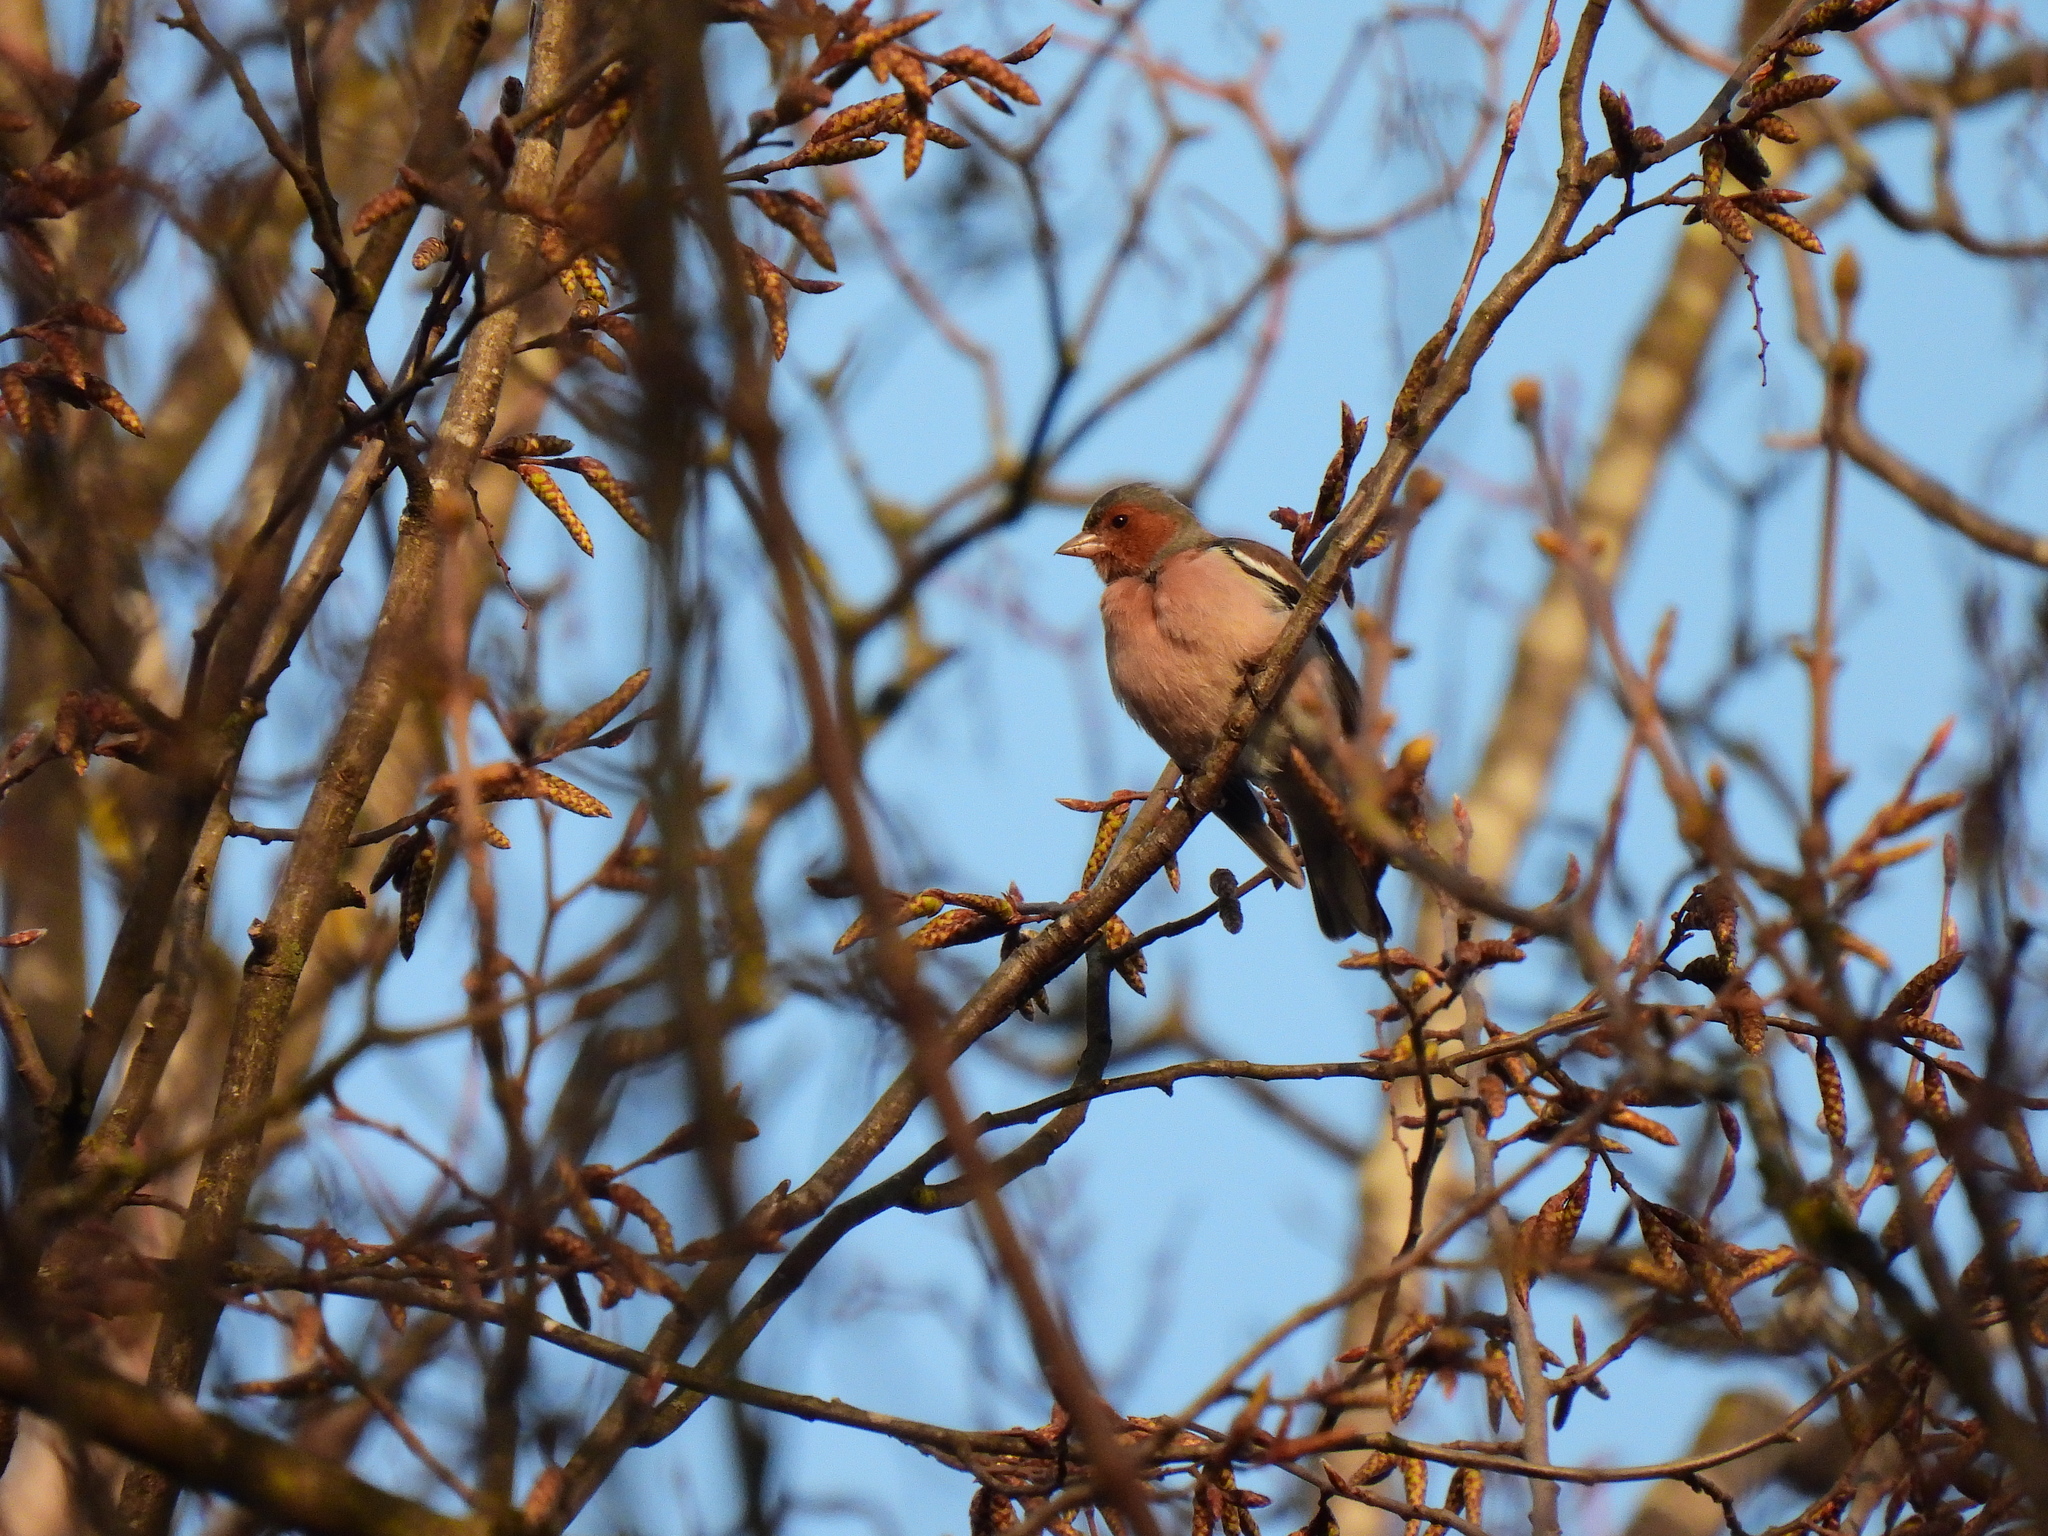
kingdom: Animalia
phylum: Chordata
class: Aves
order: Passeriformes
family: Fringillidae
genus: Fringilla
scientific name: Fringilla coelebs
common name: Common chaffinch
